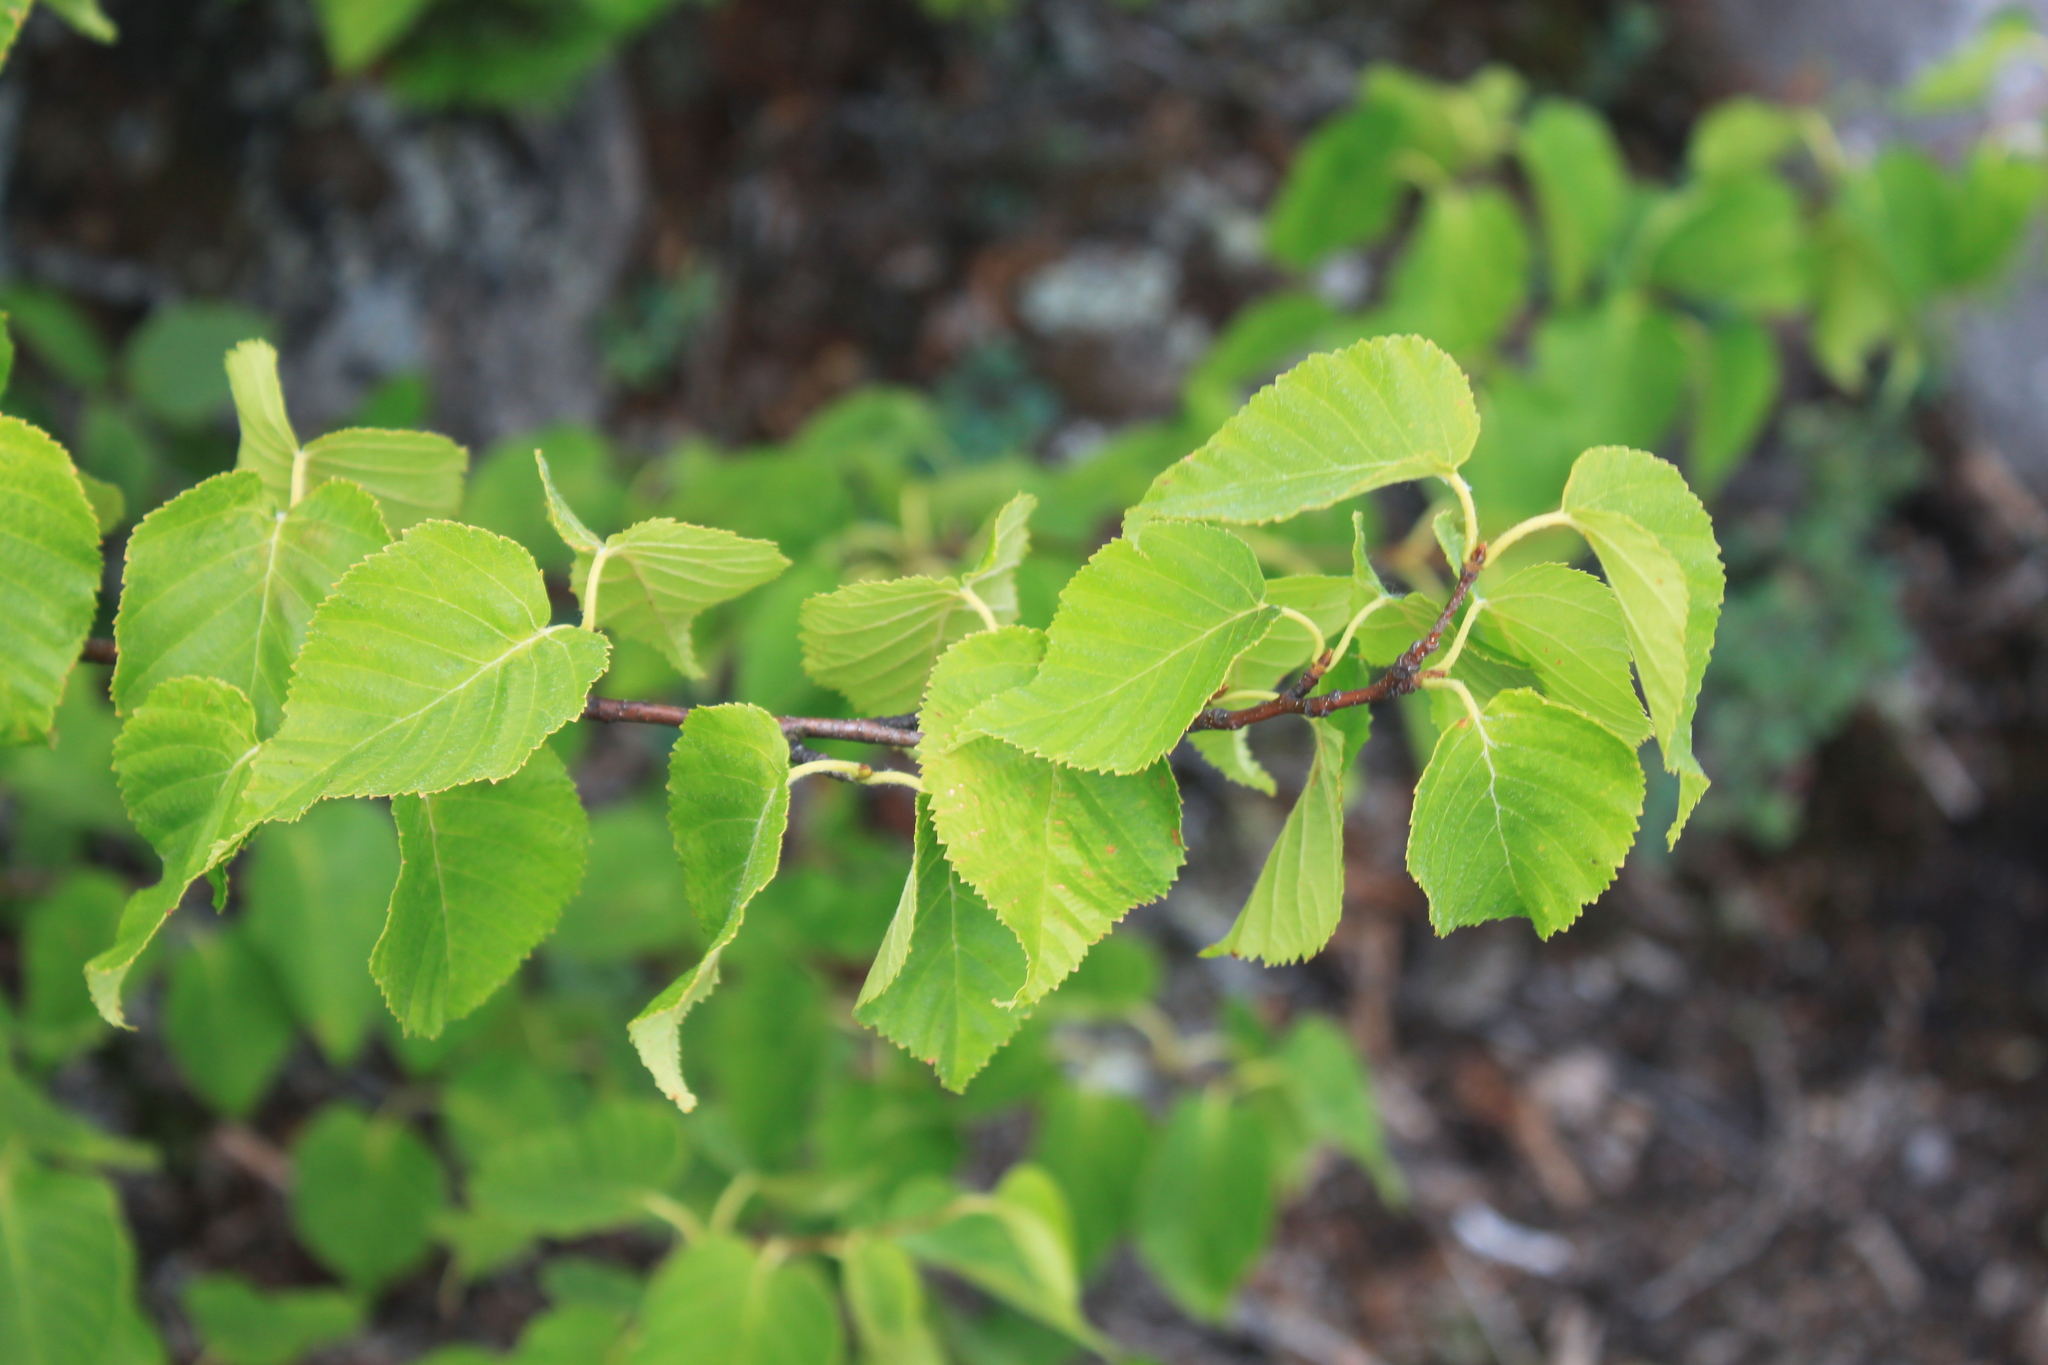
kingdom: Plantae
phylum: Tracheophyta
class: Magnoliopsida
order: Fagales
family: Betulaceae
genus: Betula
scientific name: Betula cordifolia
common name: Mountain white birch
